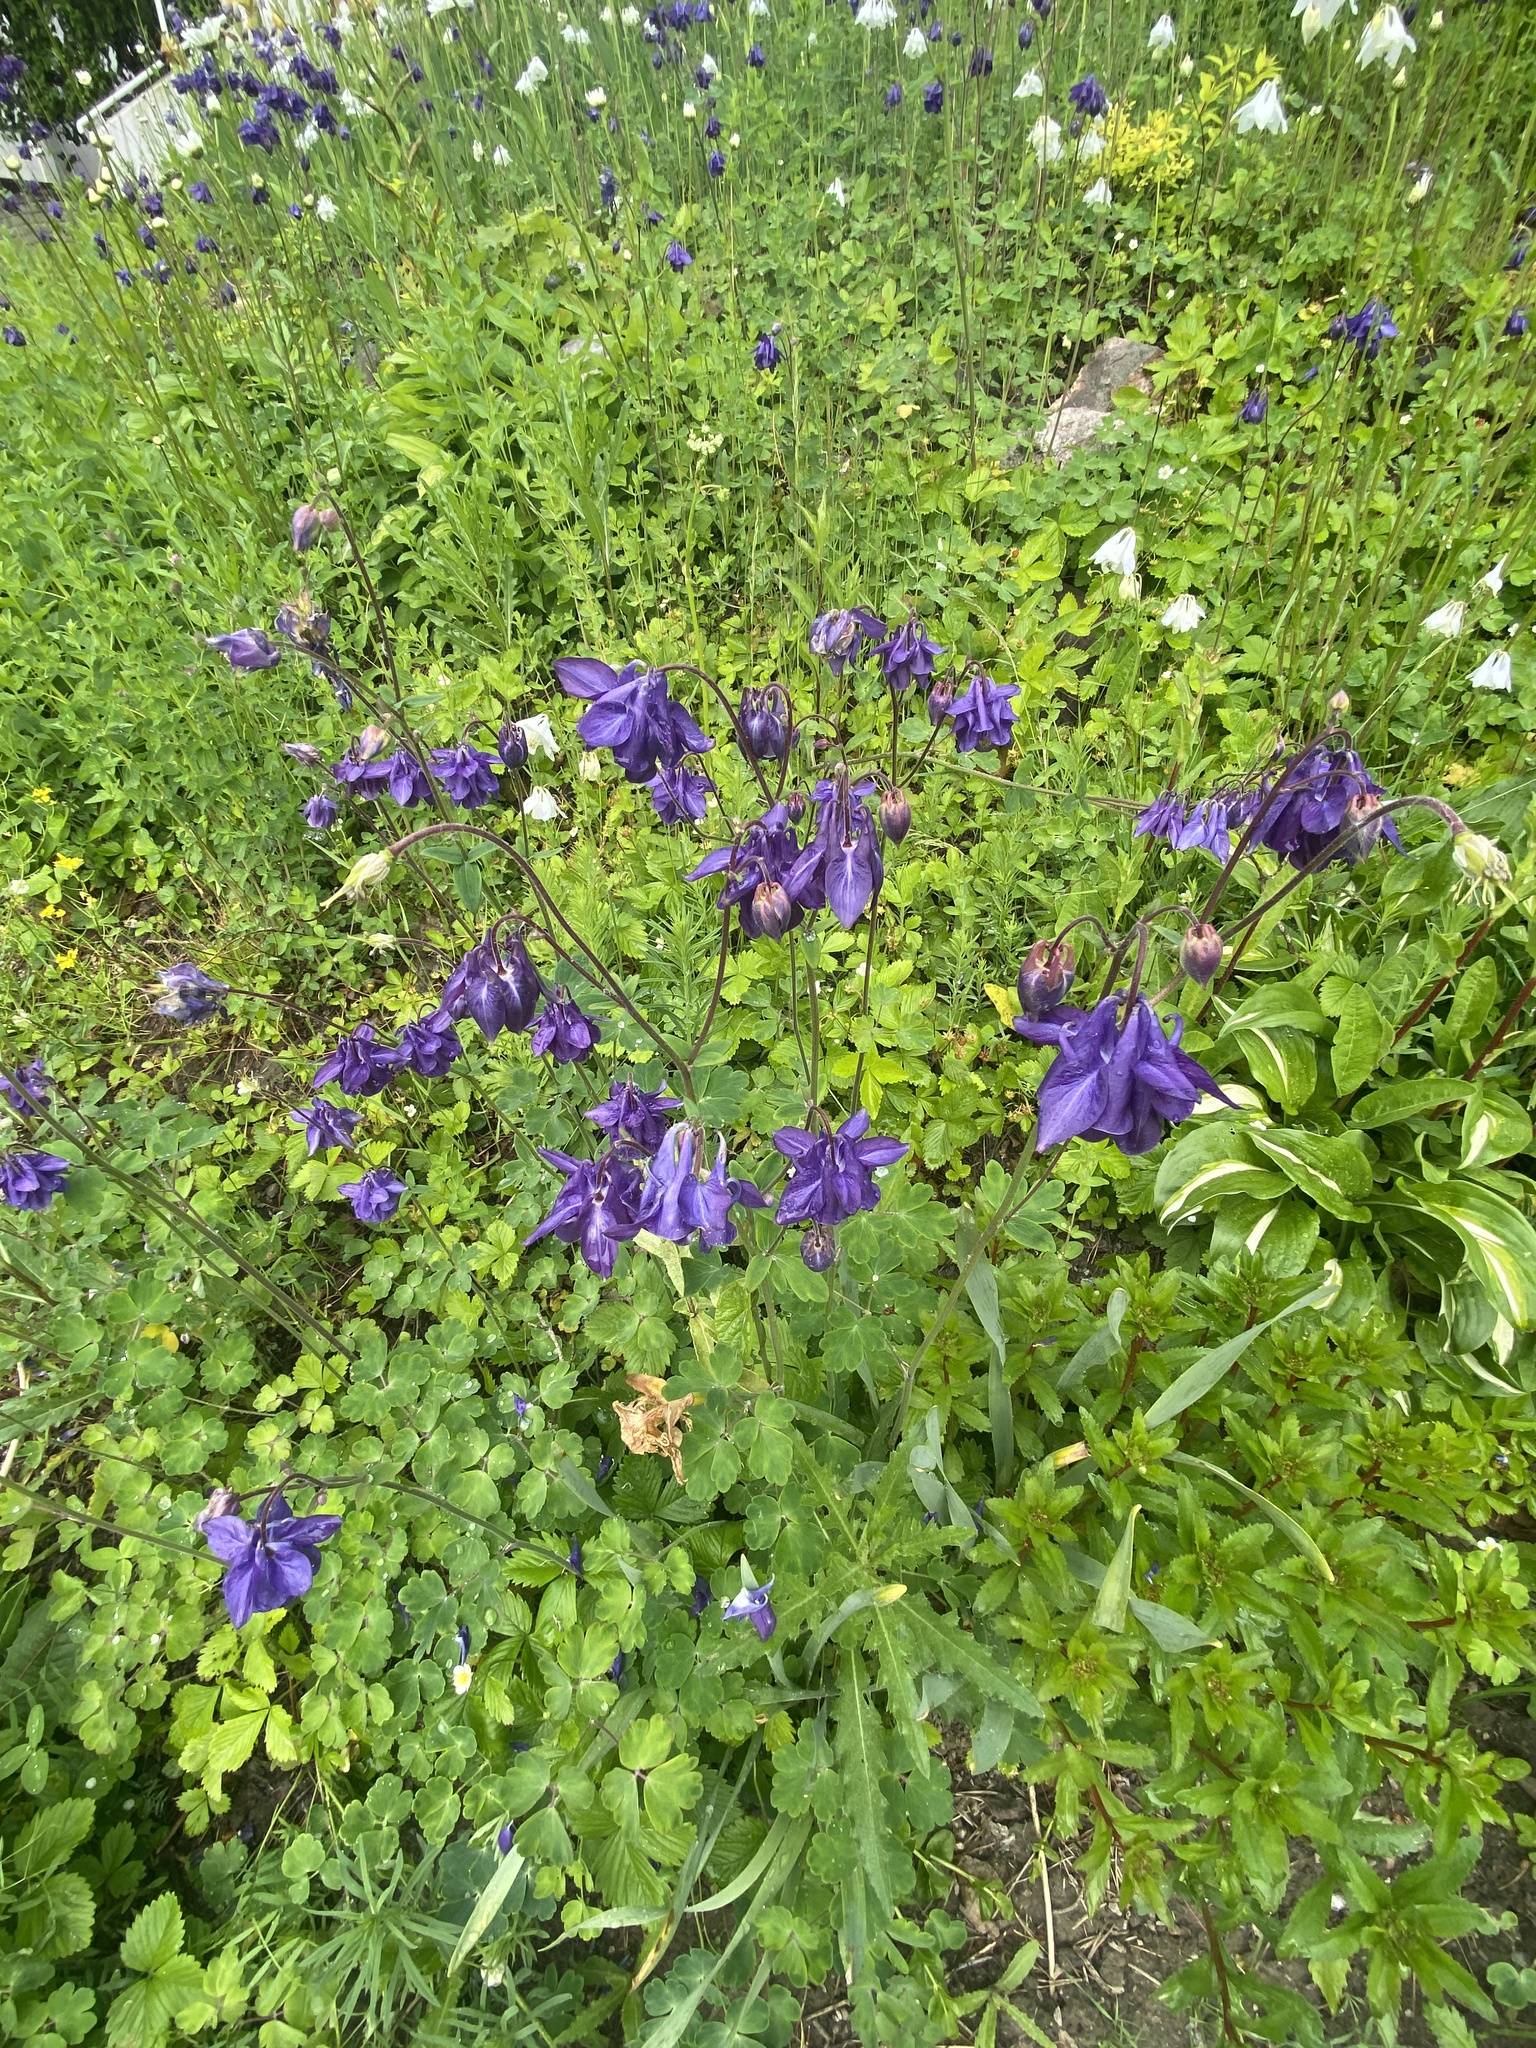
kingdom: Plantae
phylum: Tracheophyta
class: Magnoliopsida
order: Ranunculales
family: Ranunculaceae
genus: Aquilegia
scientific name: Aquilegia vulgaris
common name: Columbine
